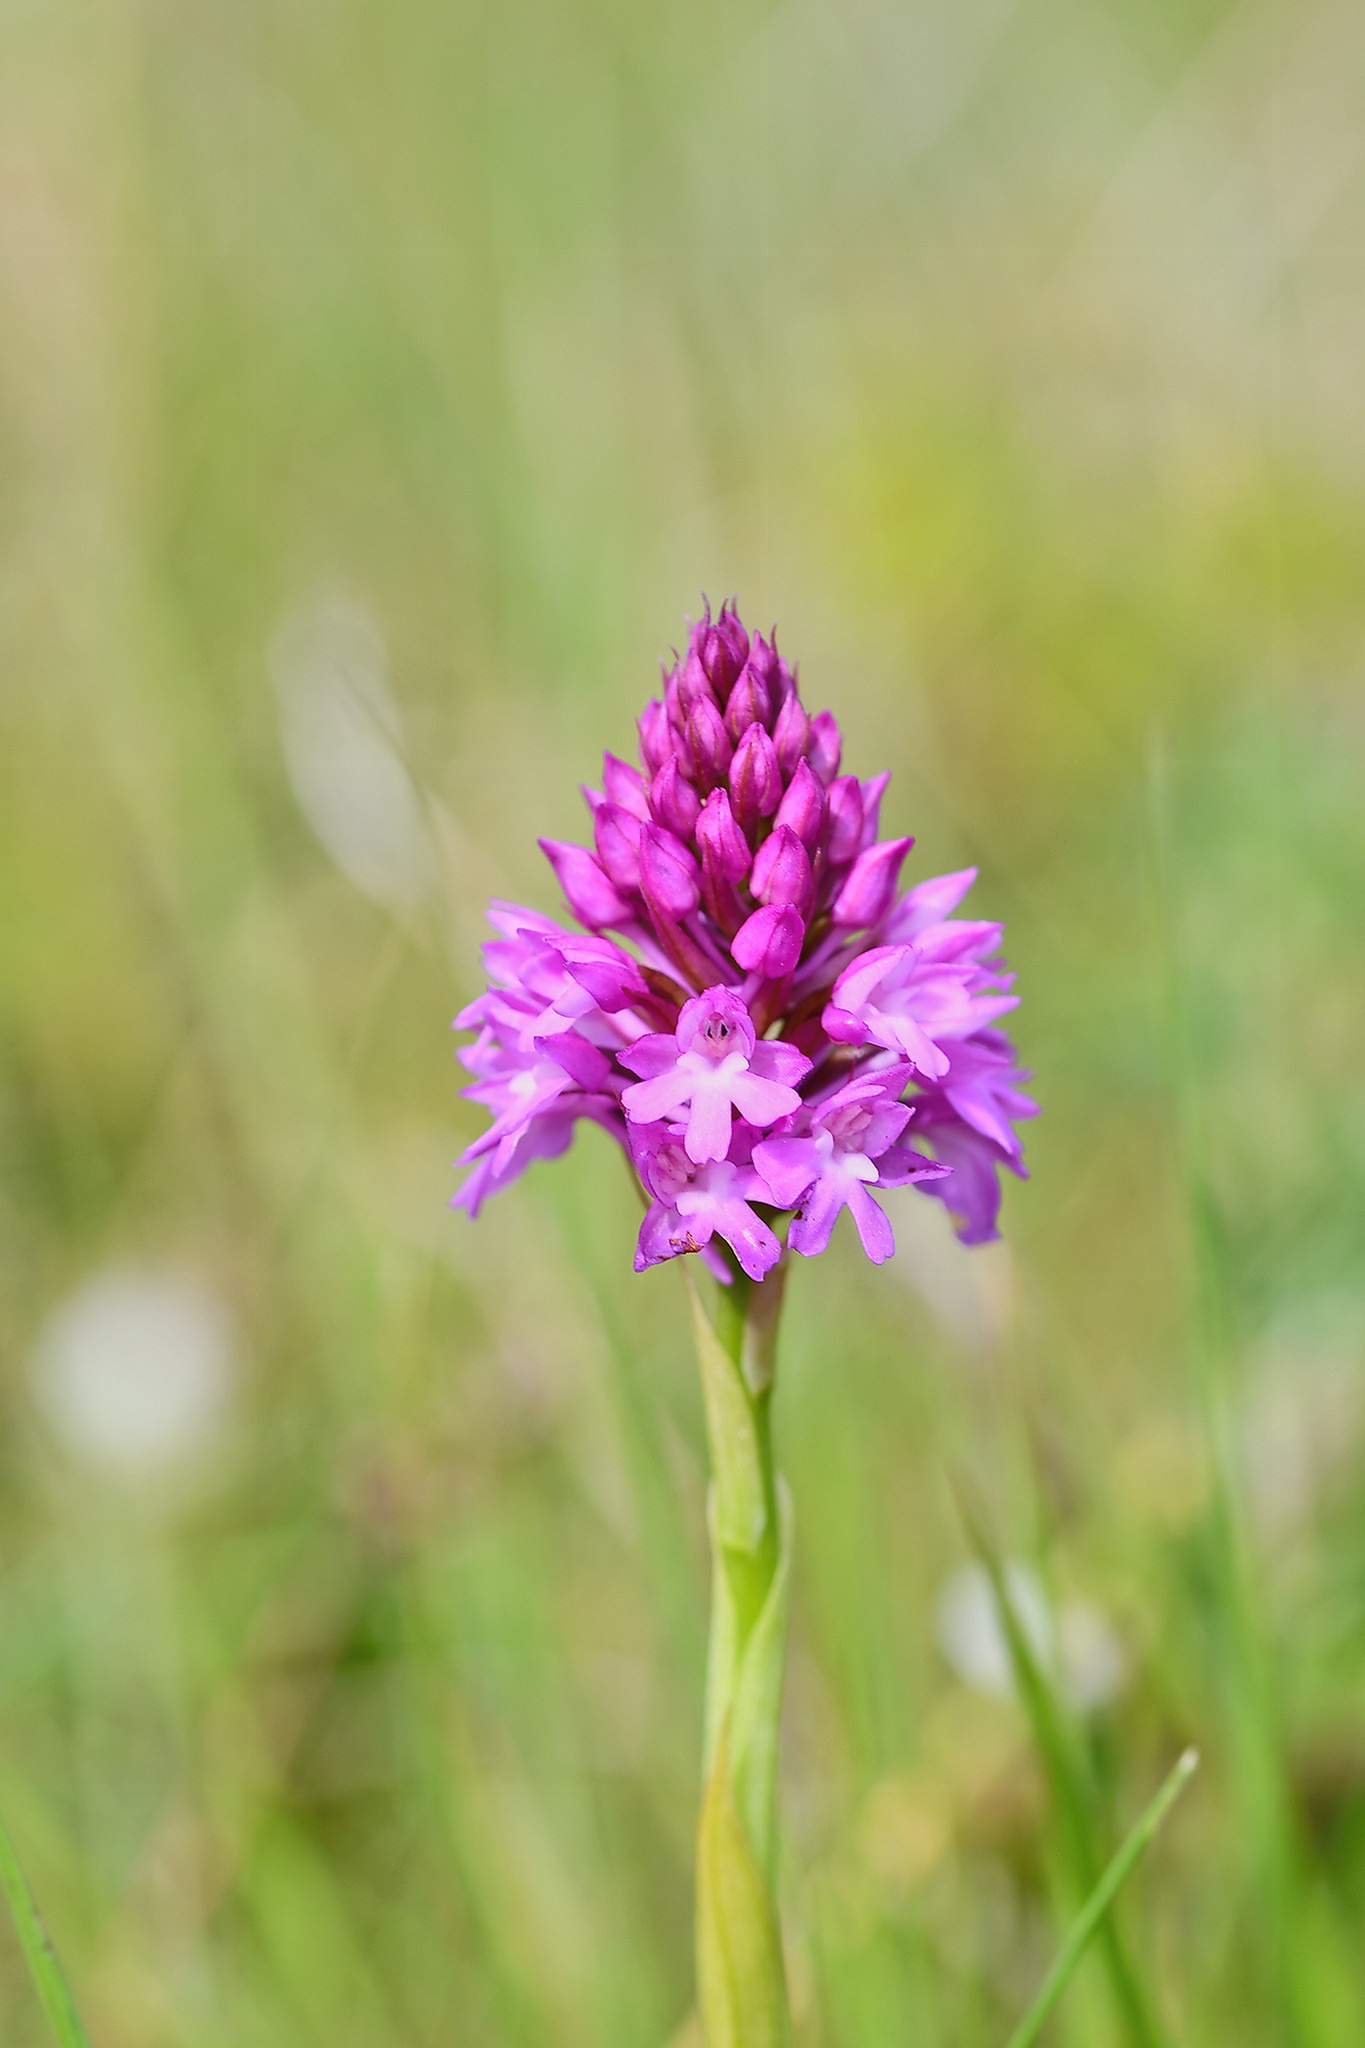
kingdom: Plantae
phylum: Tracheophyta
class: Liliopsida
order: Asparagales
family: Orchidaceae
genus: Anacamptis
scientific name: Anacamptis pyramidalis
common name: Pyramidal orchid
